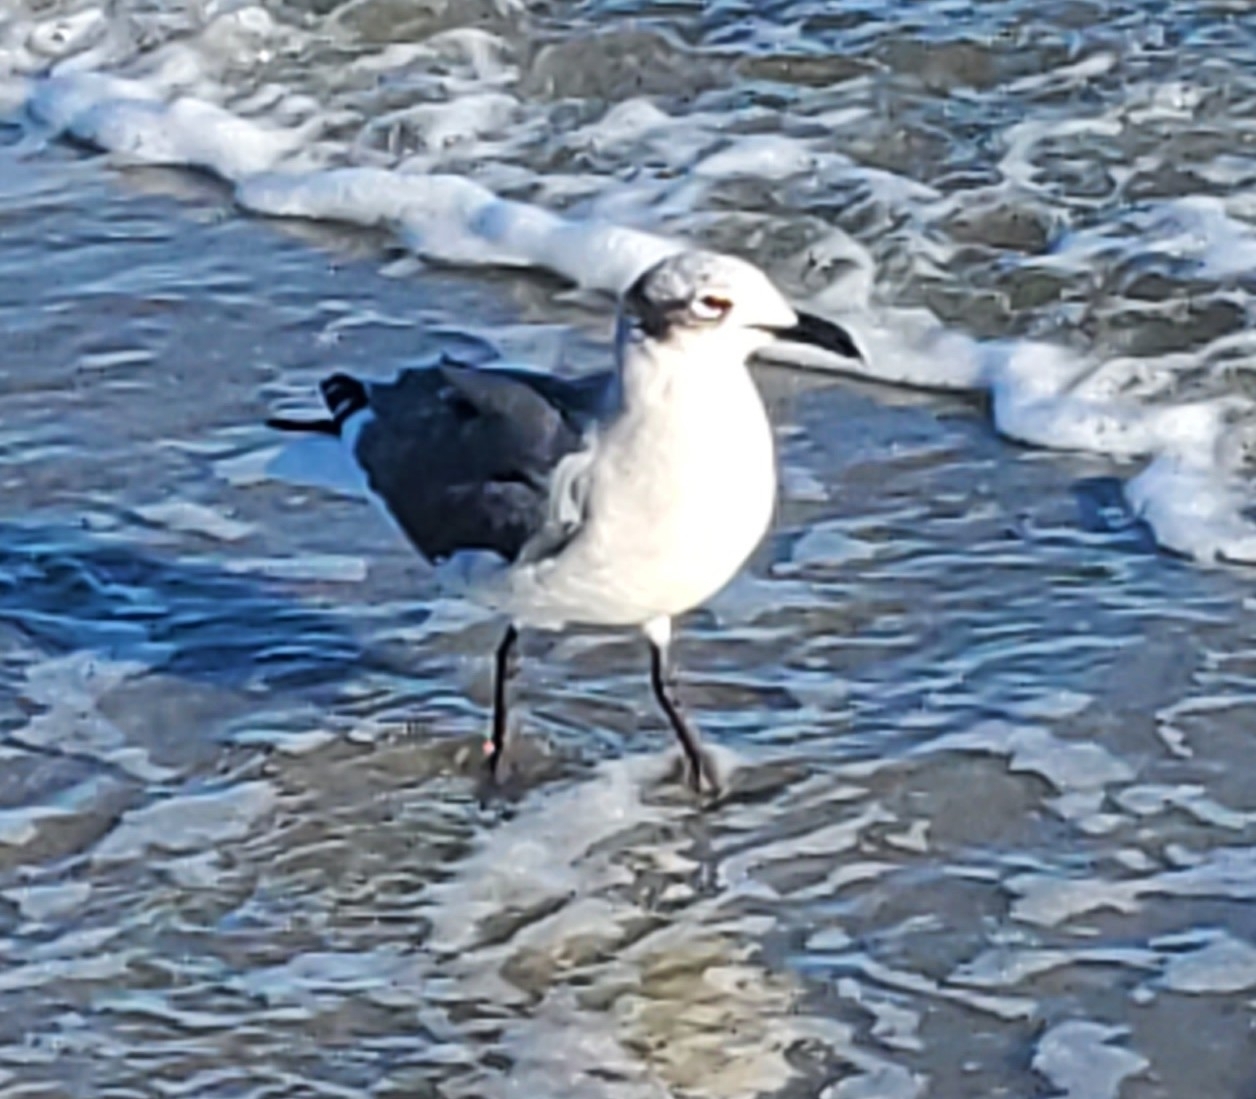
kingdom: Animalia
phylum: Chordata
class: Aves
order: Charadriiformes
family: Laridae
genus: Leucophaeus
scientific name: Leucophaeus atricilla
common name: Laughing gull
